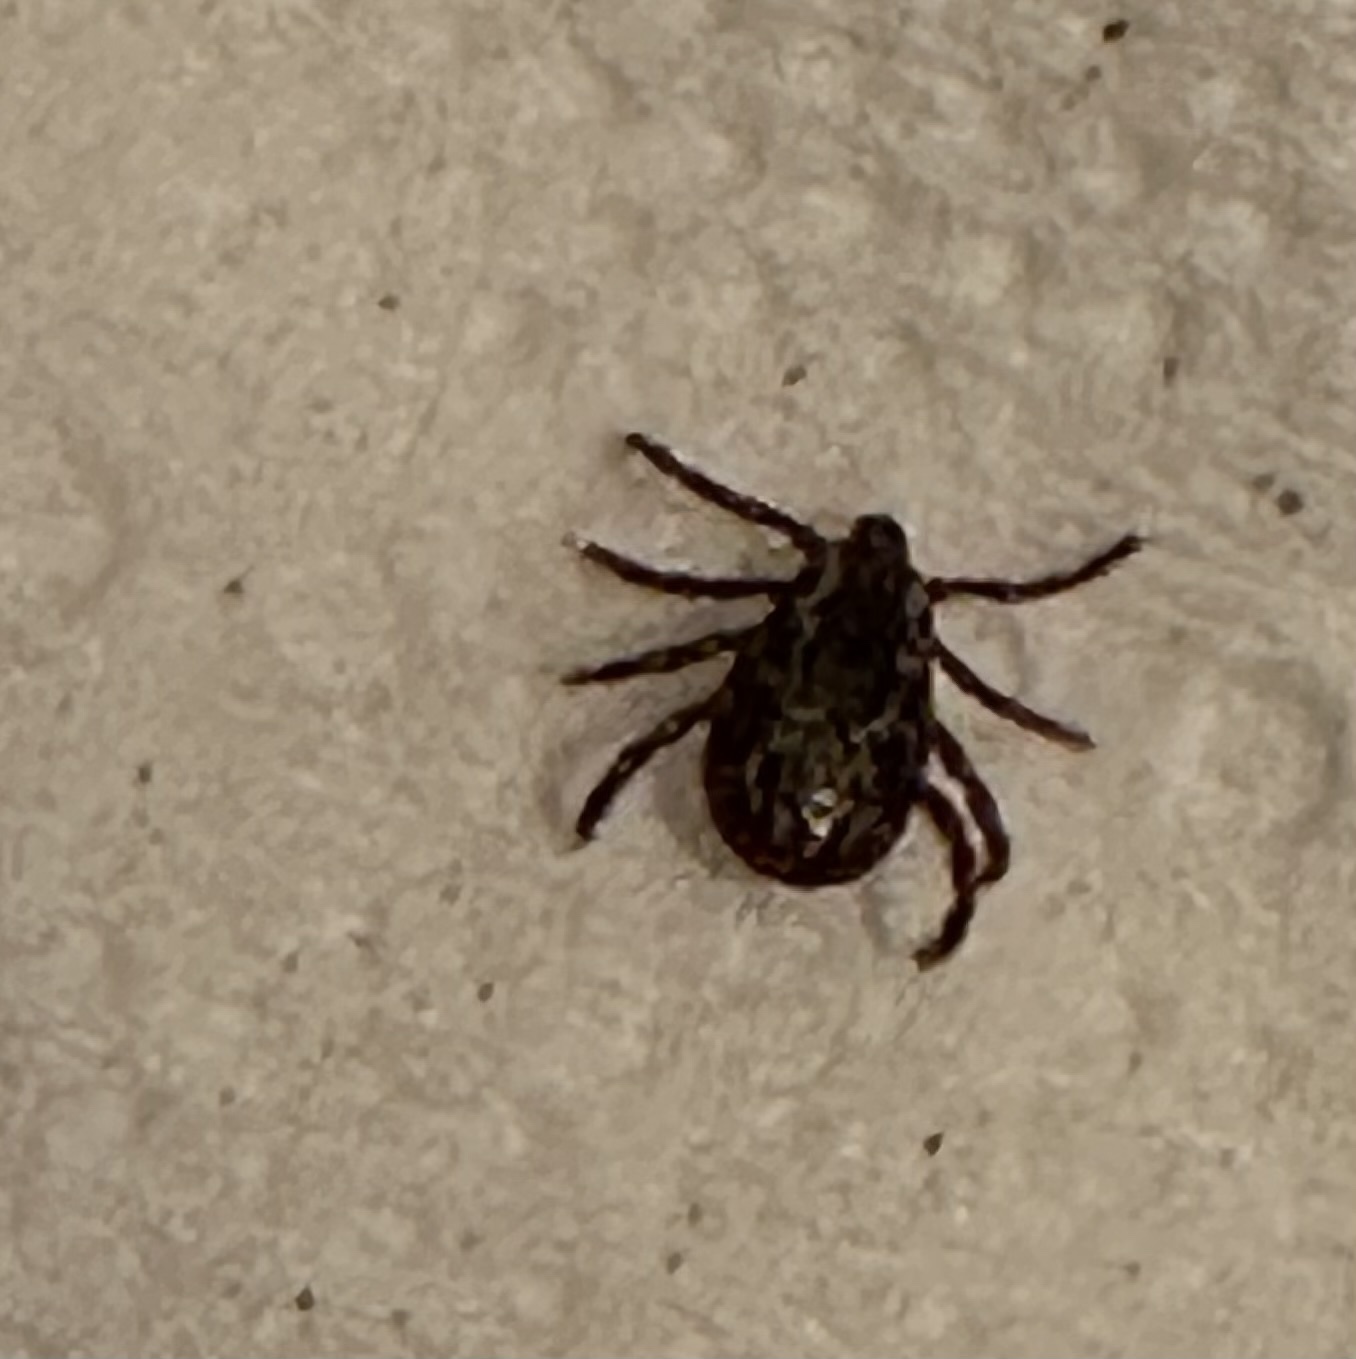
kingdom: Animalia
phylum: Arthropoda
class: Arachnida
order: Ixodida
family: Ixodidae
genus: Dermacentor
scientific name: Dermacentor variabilis
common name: American dog tick
